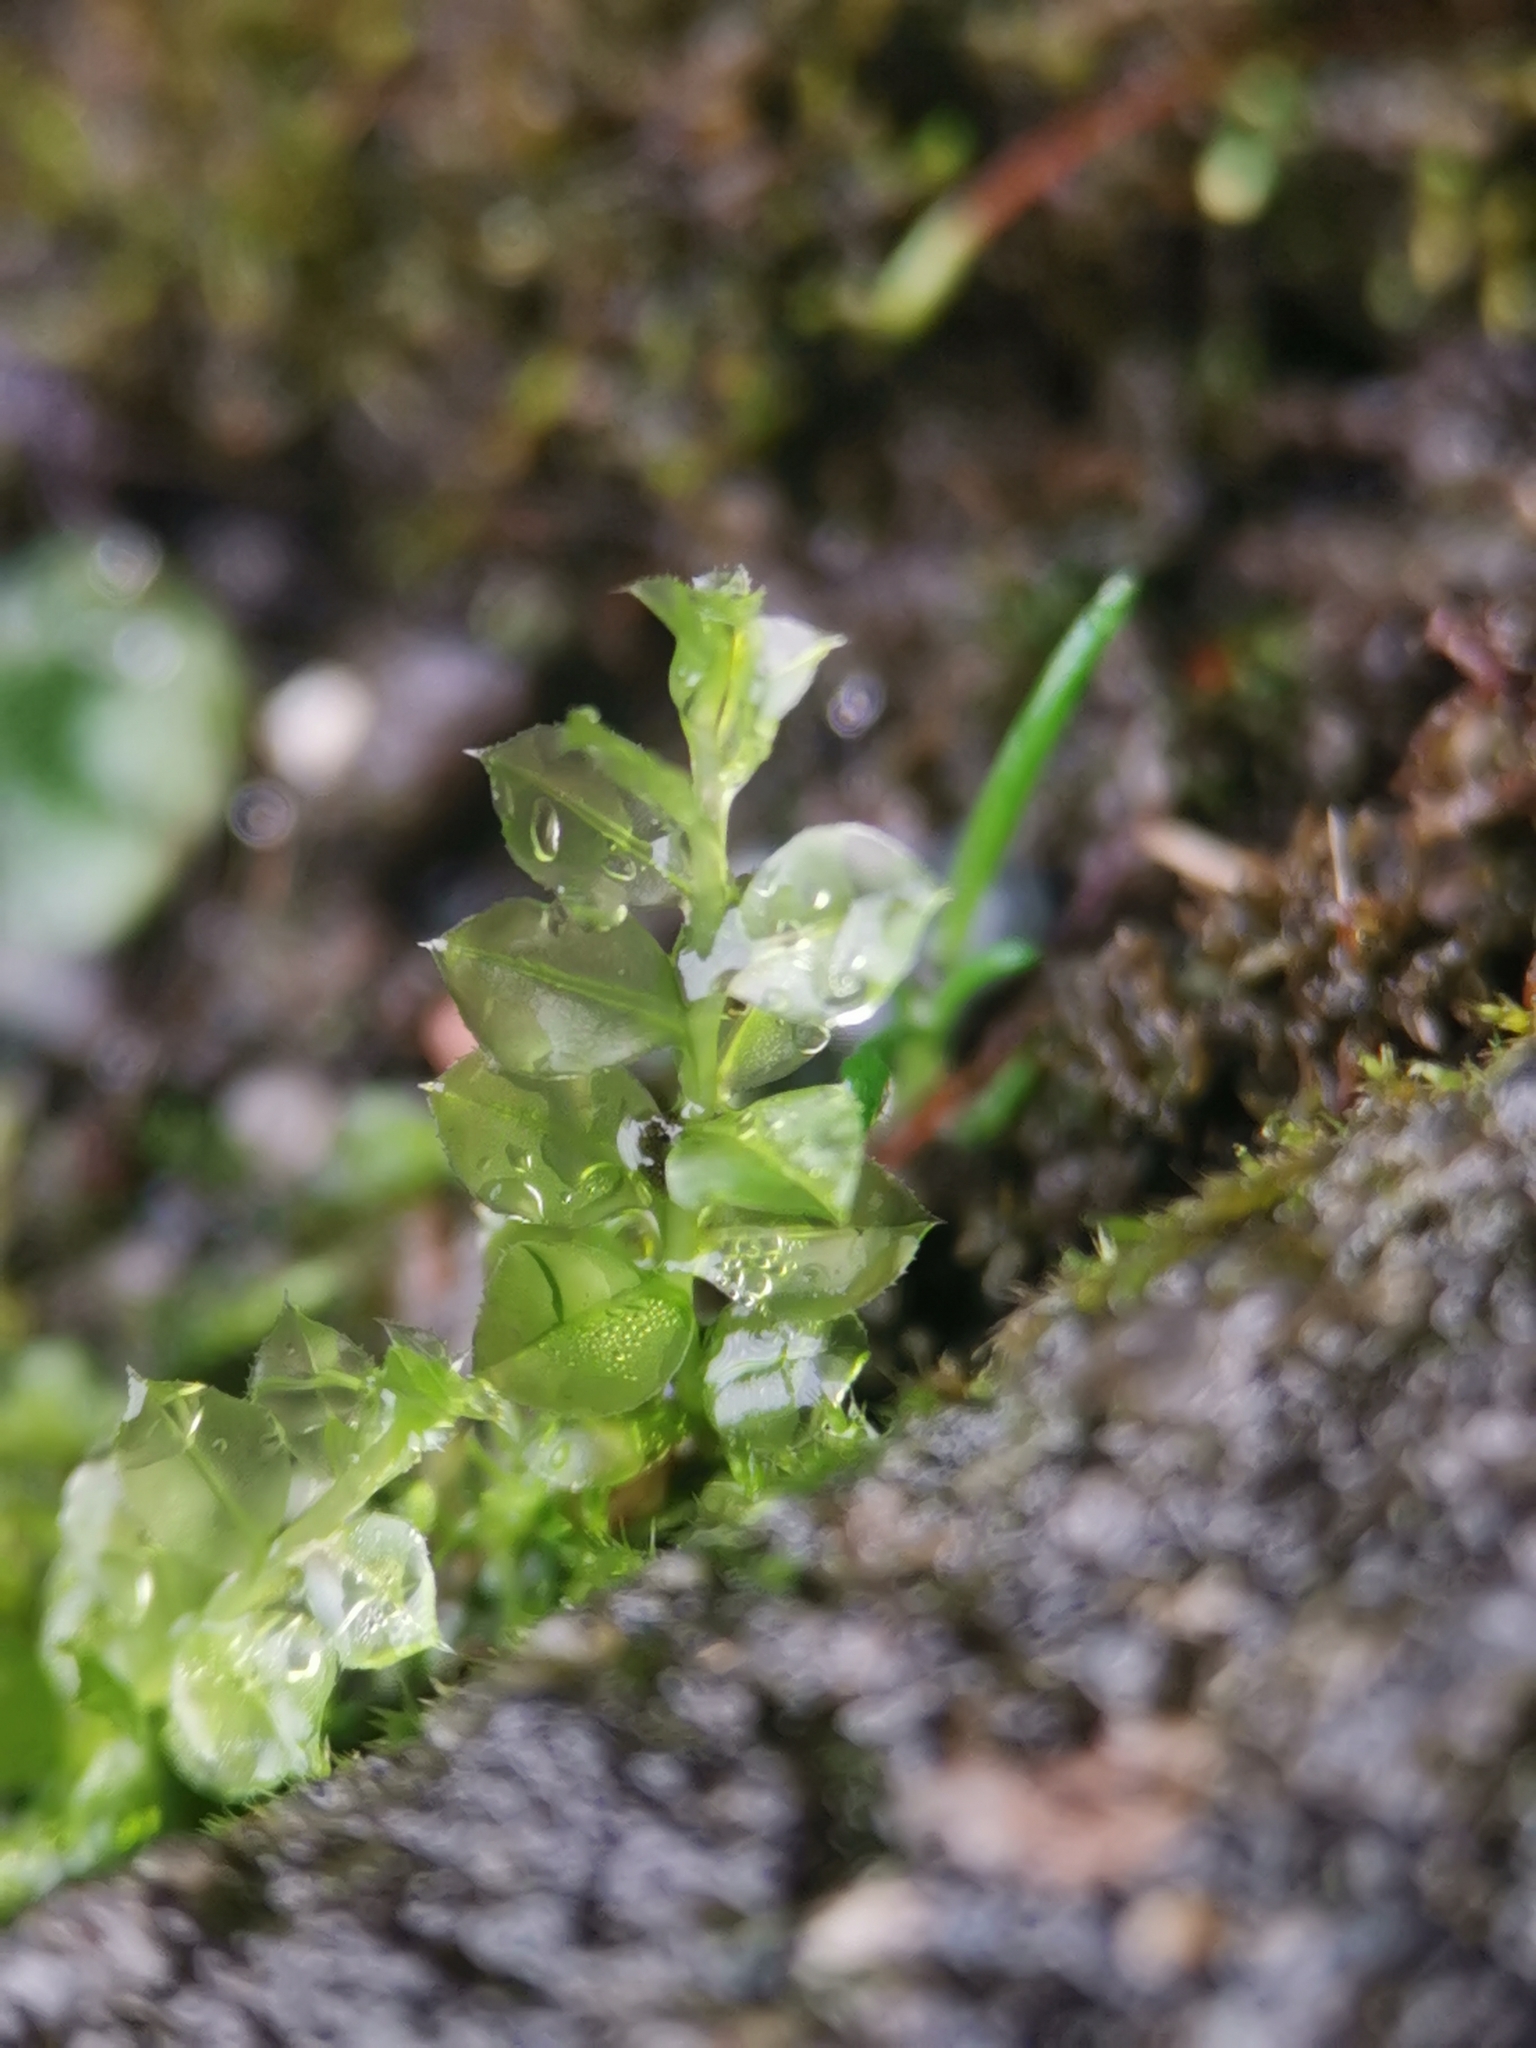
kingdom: Plantae
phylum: Bryophyta
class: Bryopsida
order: Bryales
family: Mniaceae
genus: Plagiomnium
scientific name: Plagiomnium cuspidatum
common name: Woodsy leafy moss
